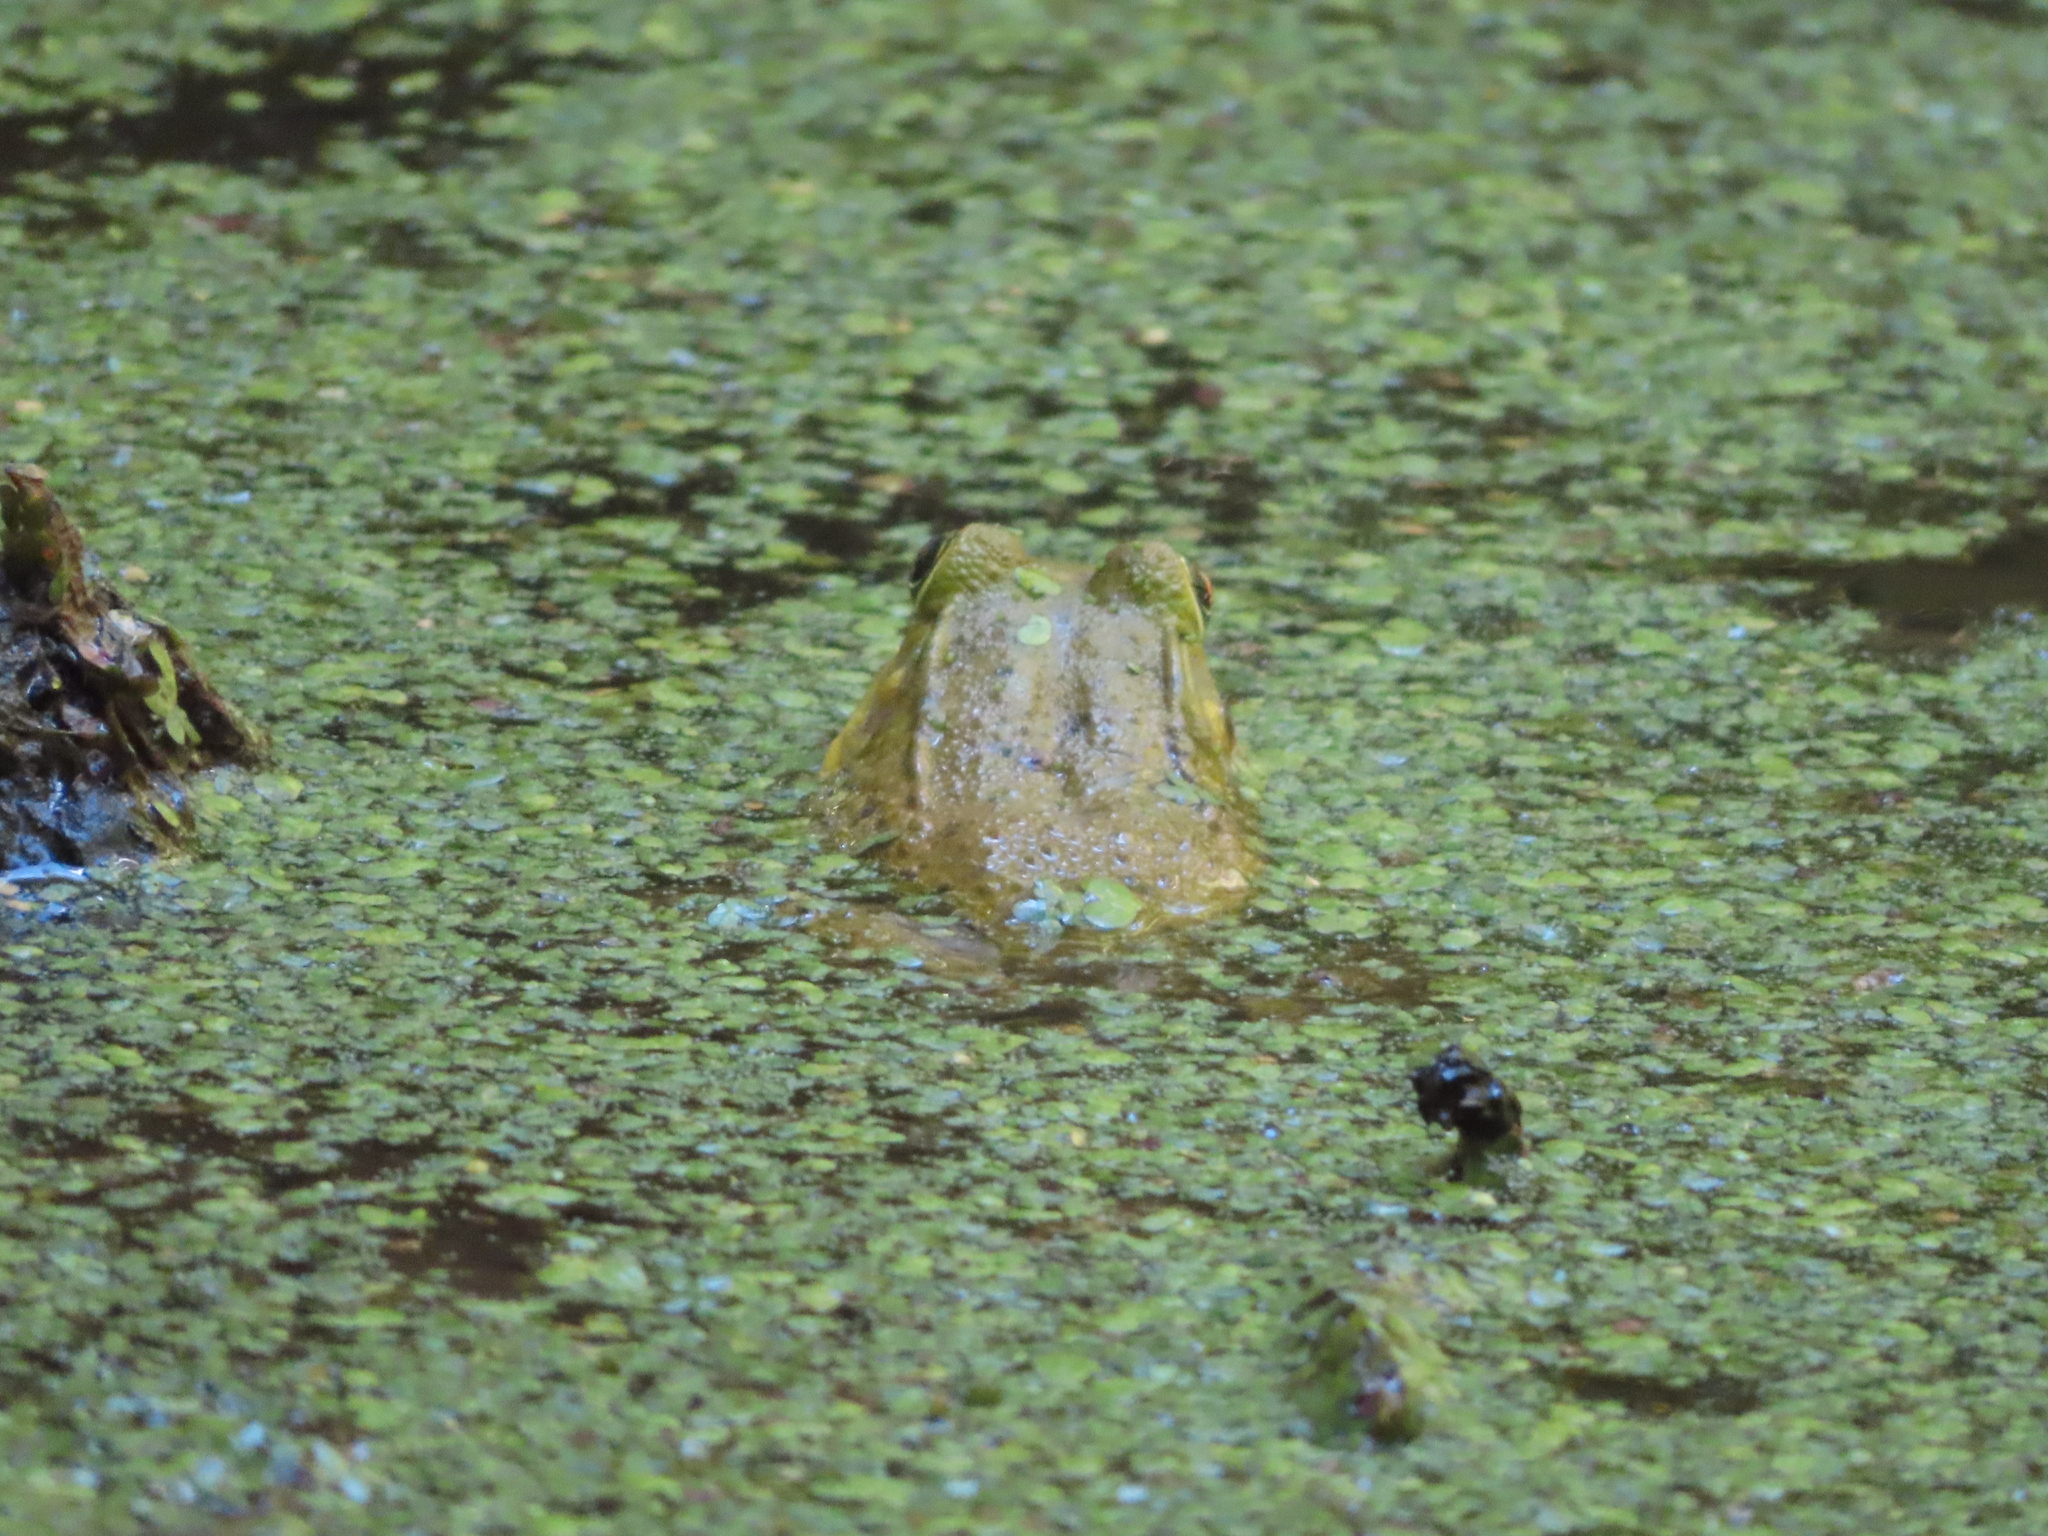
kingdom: Animalia
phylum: Chordata
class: Amphibia
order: Anura
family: Ranidae
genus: Lithobates
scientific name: Lithobates clamitans
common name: Green frog
